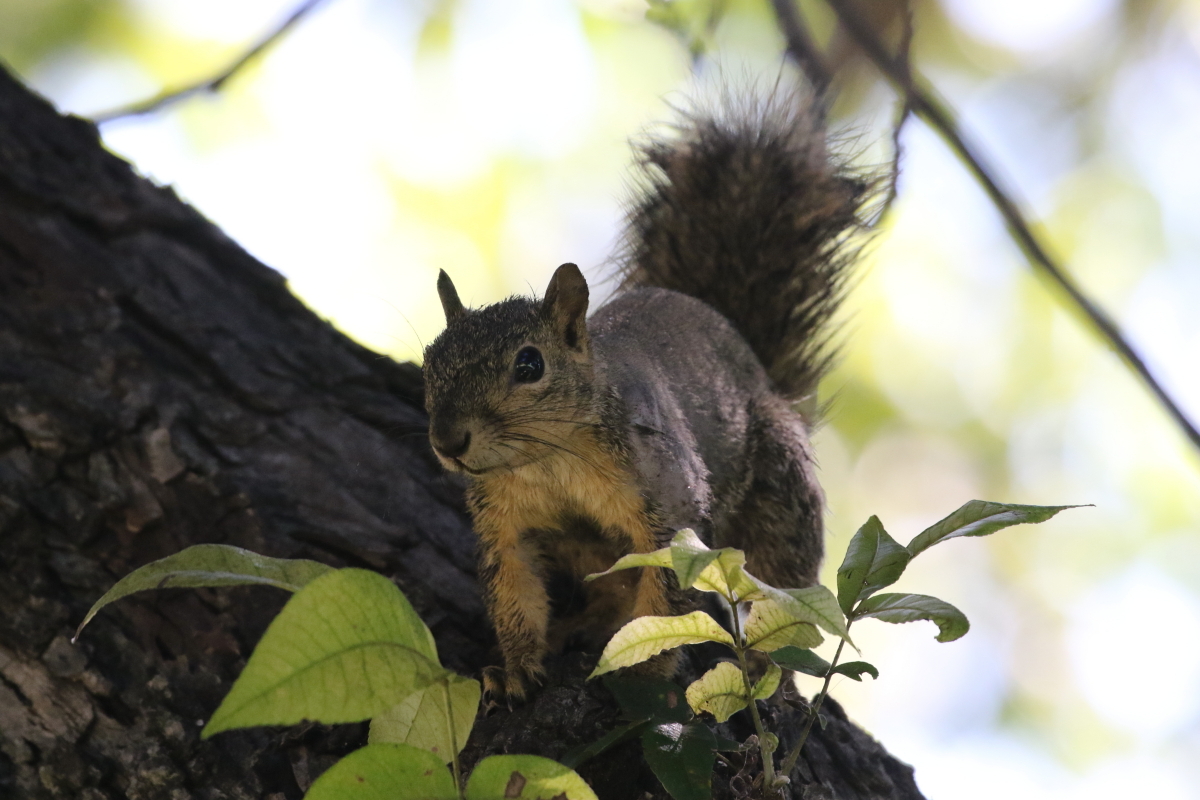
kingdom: Animalia
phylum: Chordata
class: Mammalia
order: Rodentia
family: Sciuridae
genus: Sciurus
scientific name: Sciurus niger
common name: Fox squirrel
